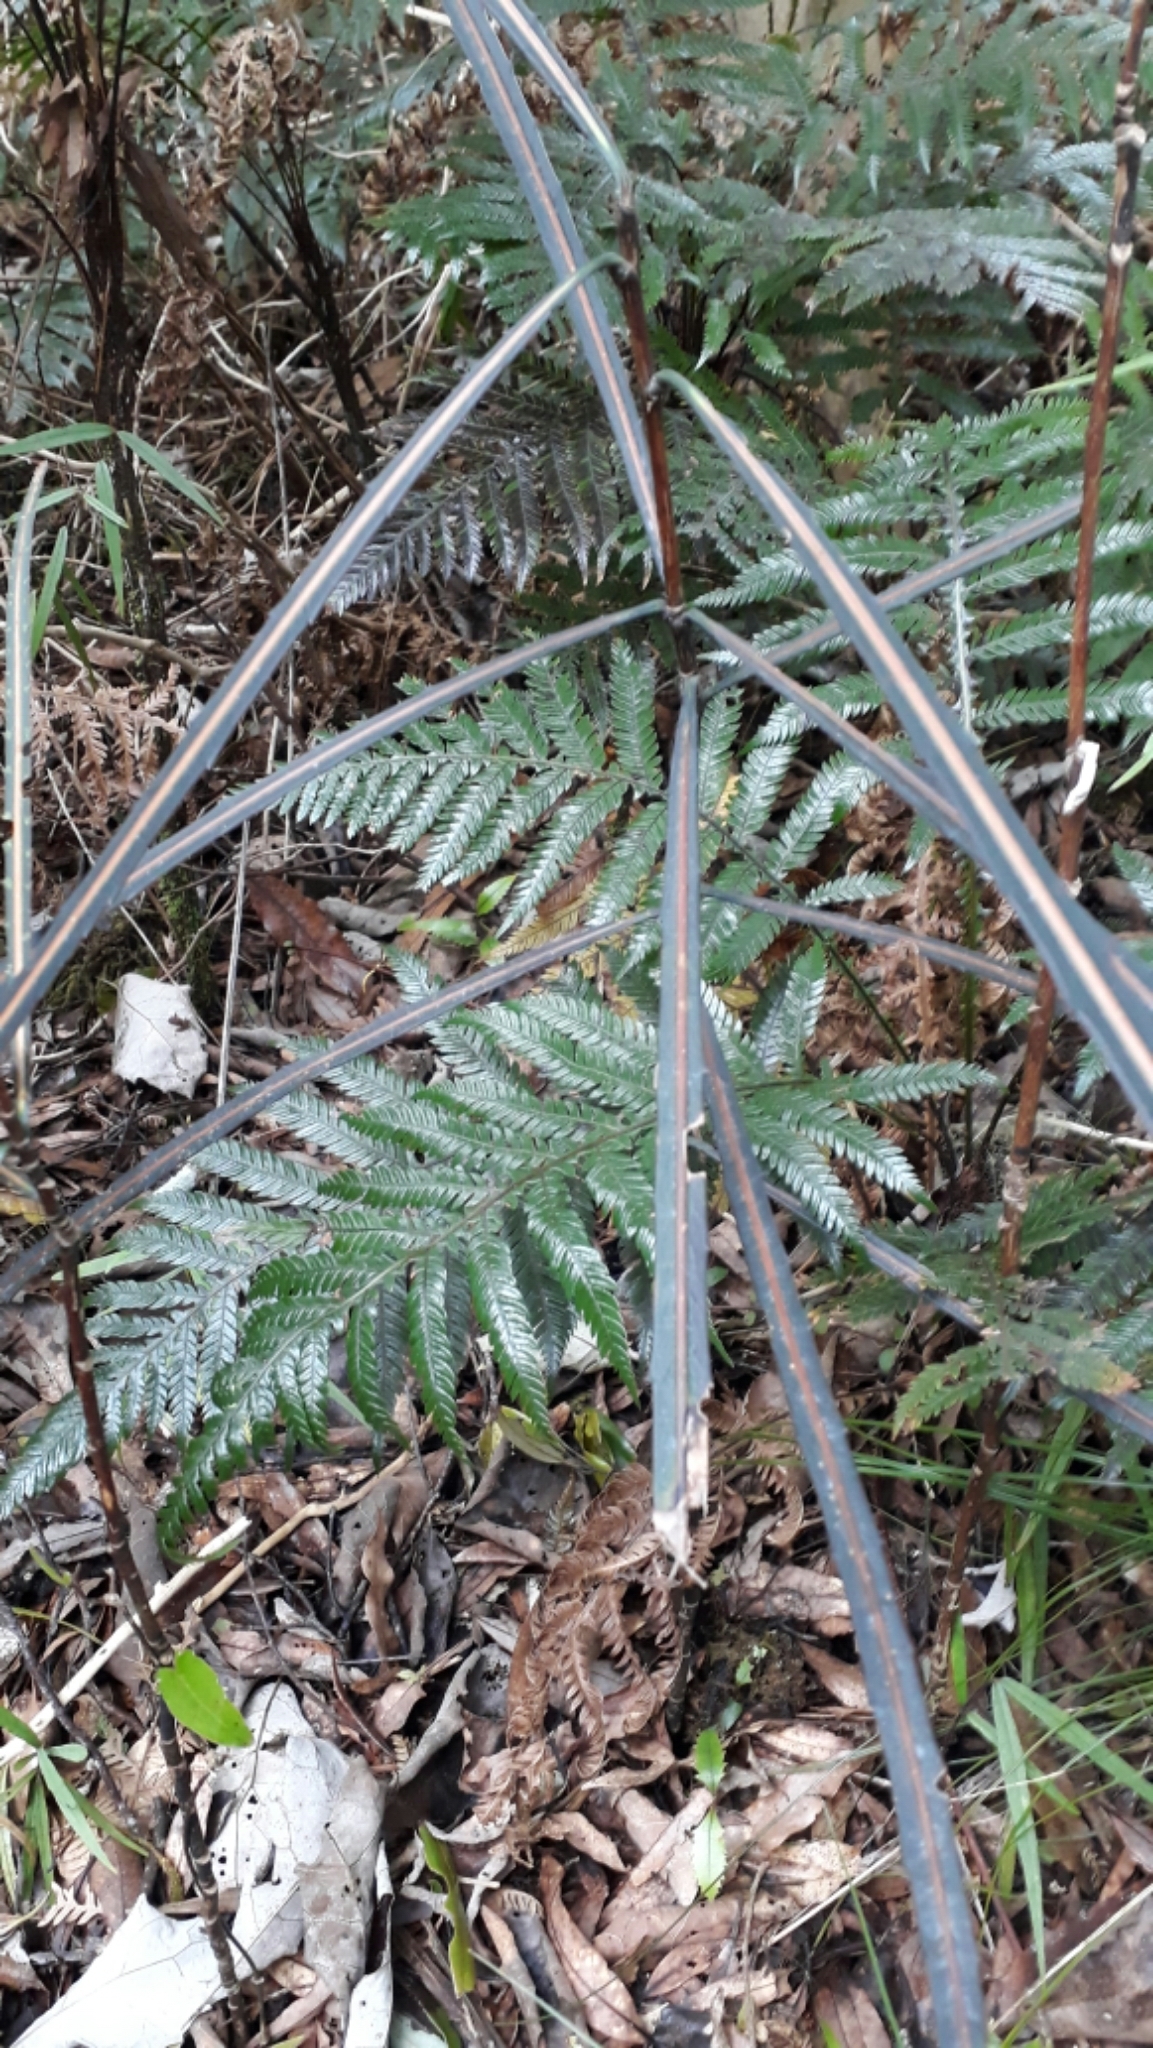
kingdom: Plantae
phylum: Tracheophyta
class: Magnoliopsida
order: Apiales
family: Araliaceae
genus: Pseudopanax
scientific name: Pseudopanax crassifolius
